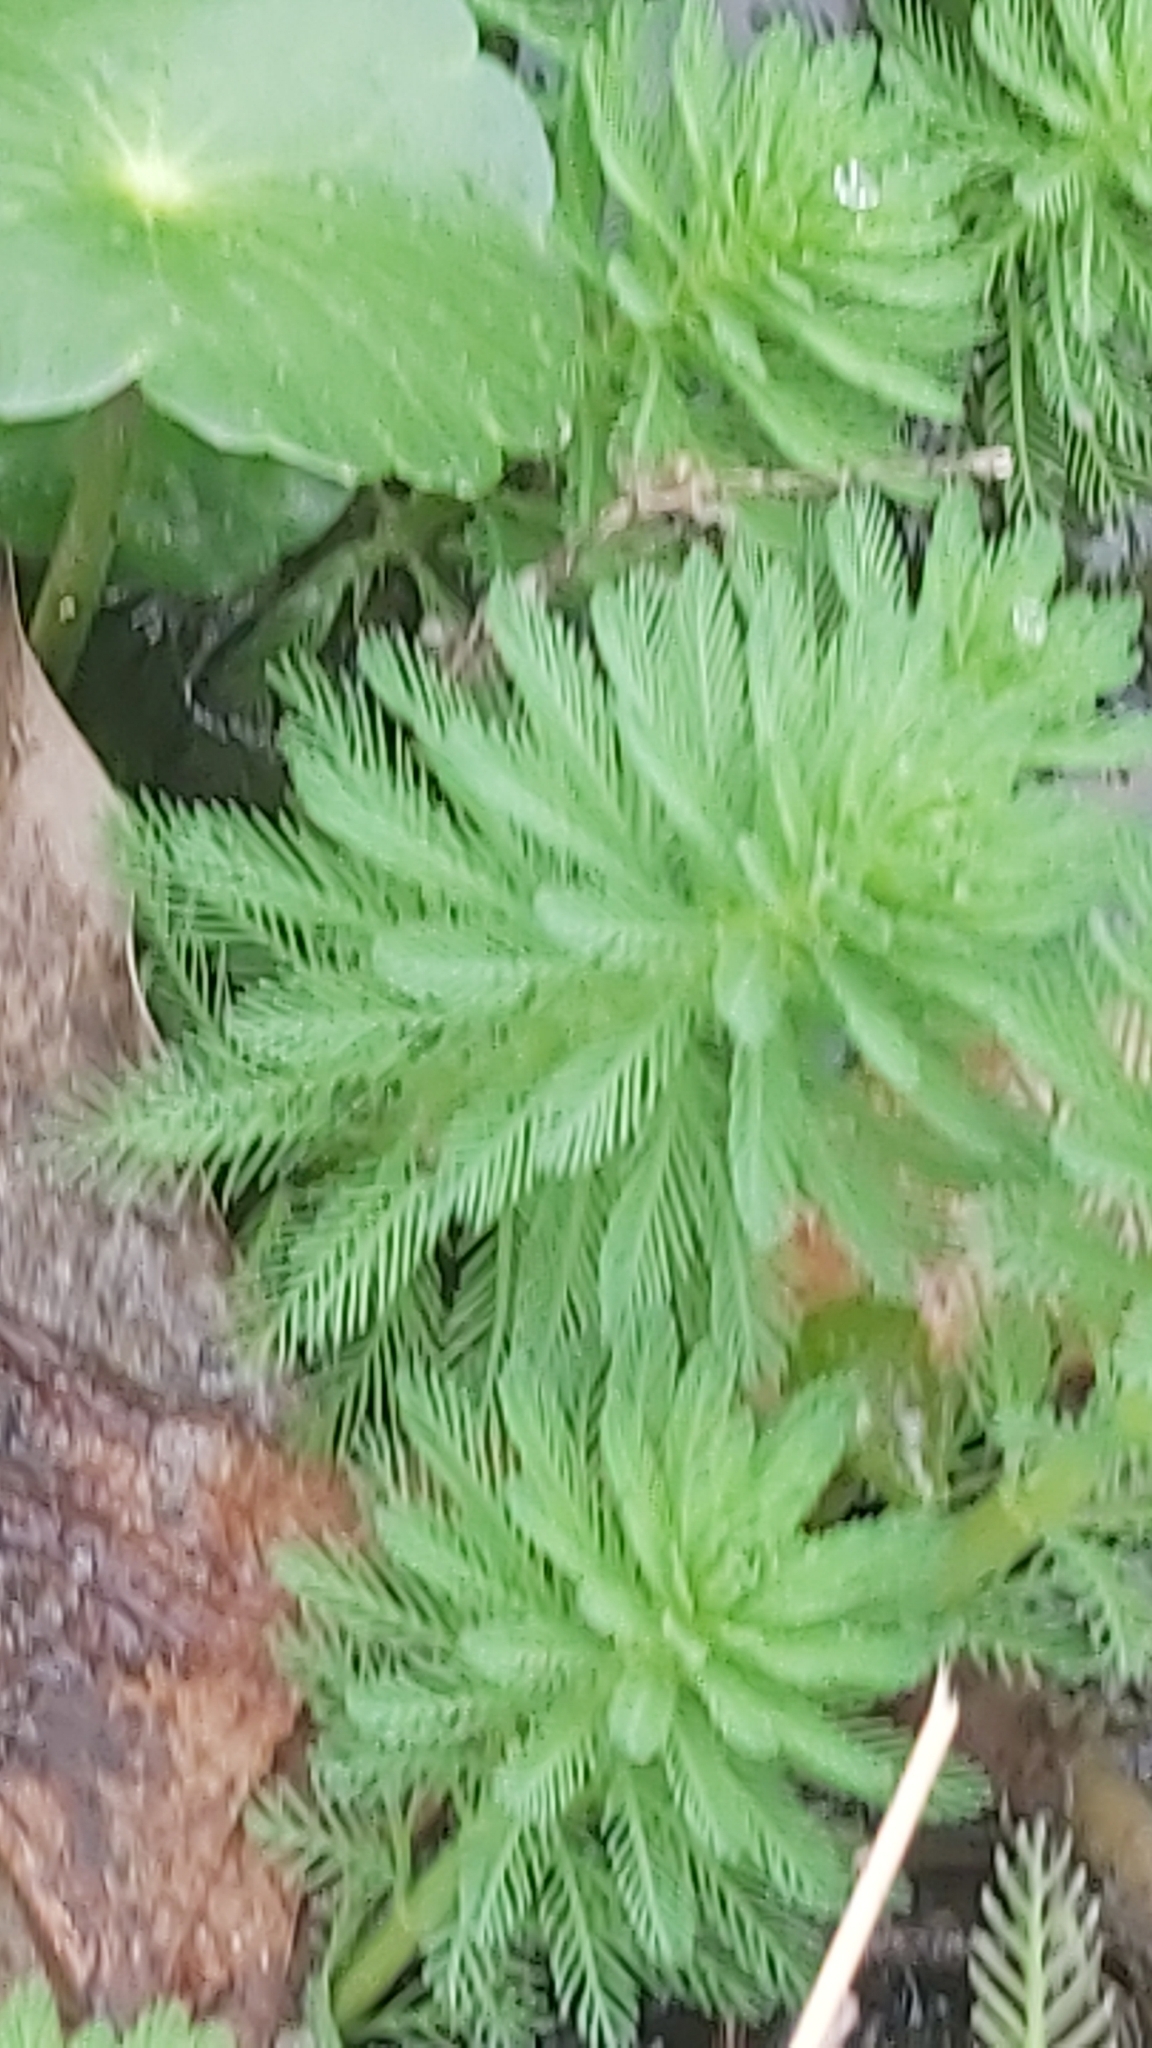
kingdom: Plantae
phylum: Tracheophyta
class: Magnoliopsida
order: Saxifragales
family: Haloragaceae
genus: Myriophyllum
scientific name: Myriophyllum aquaticum
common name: Parrot's feather
